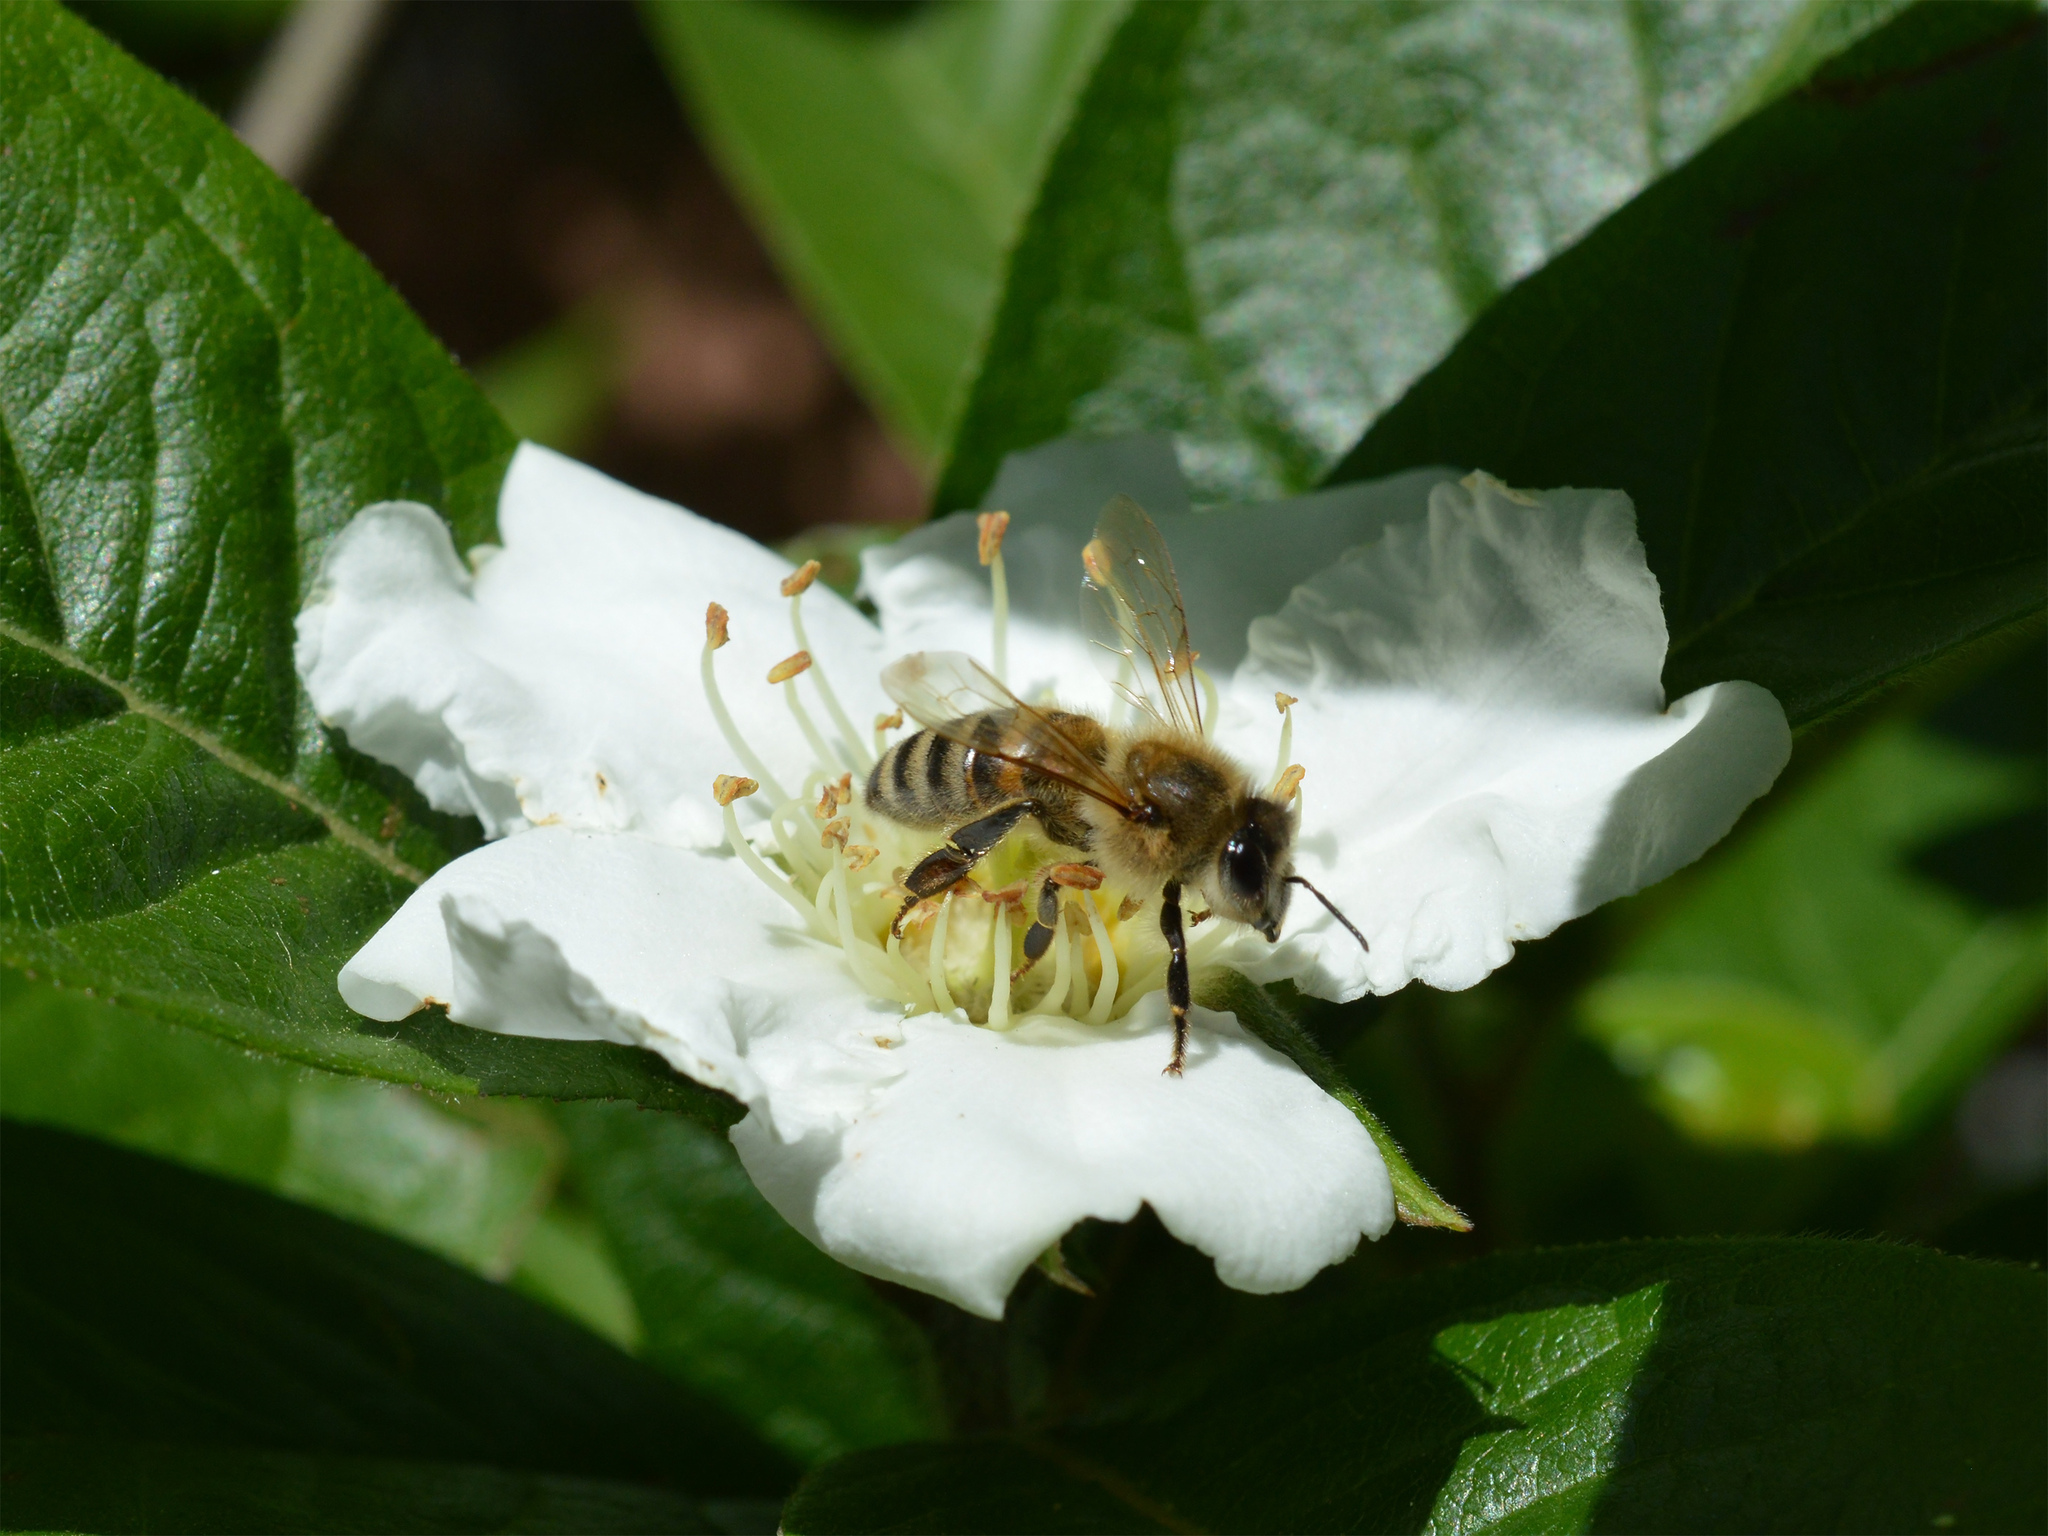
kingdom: Animalia
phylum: Arthropoda
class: Insecta
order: Hymenoptera
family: Apidae
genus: Apis
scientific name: Apis mellifera
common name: Honey bee
